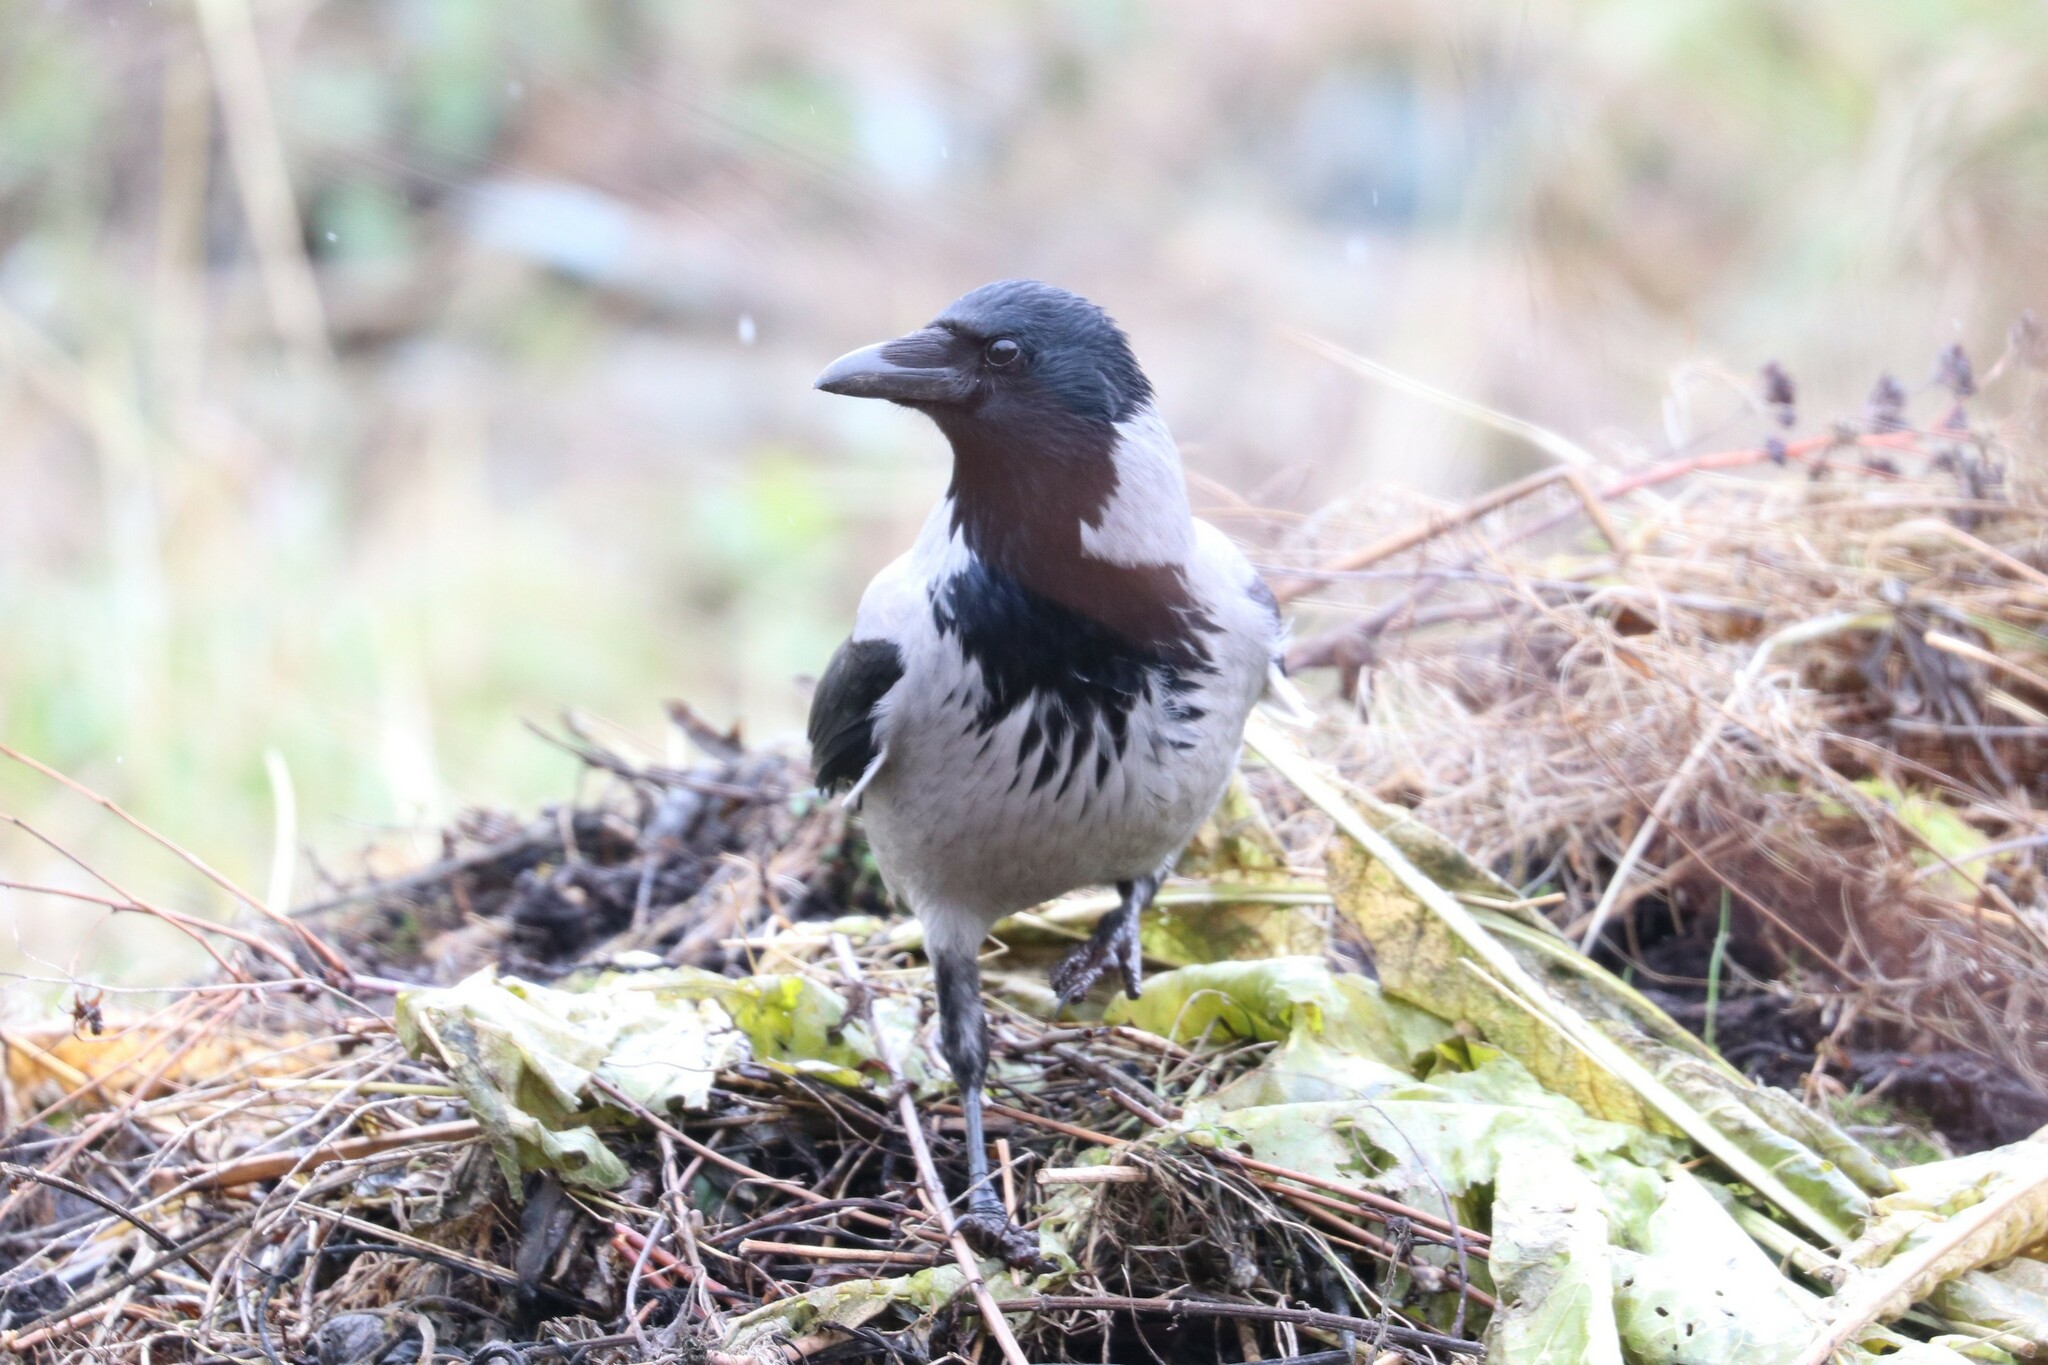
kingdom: Animalia
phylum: Chordata
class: Aves
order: Passeriformes
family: Corvidae
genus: Corvus
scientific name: Corvus cornix
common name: Hooded crow
